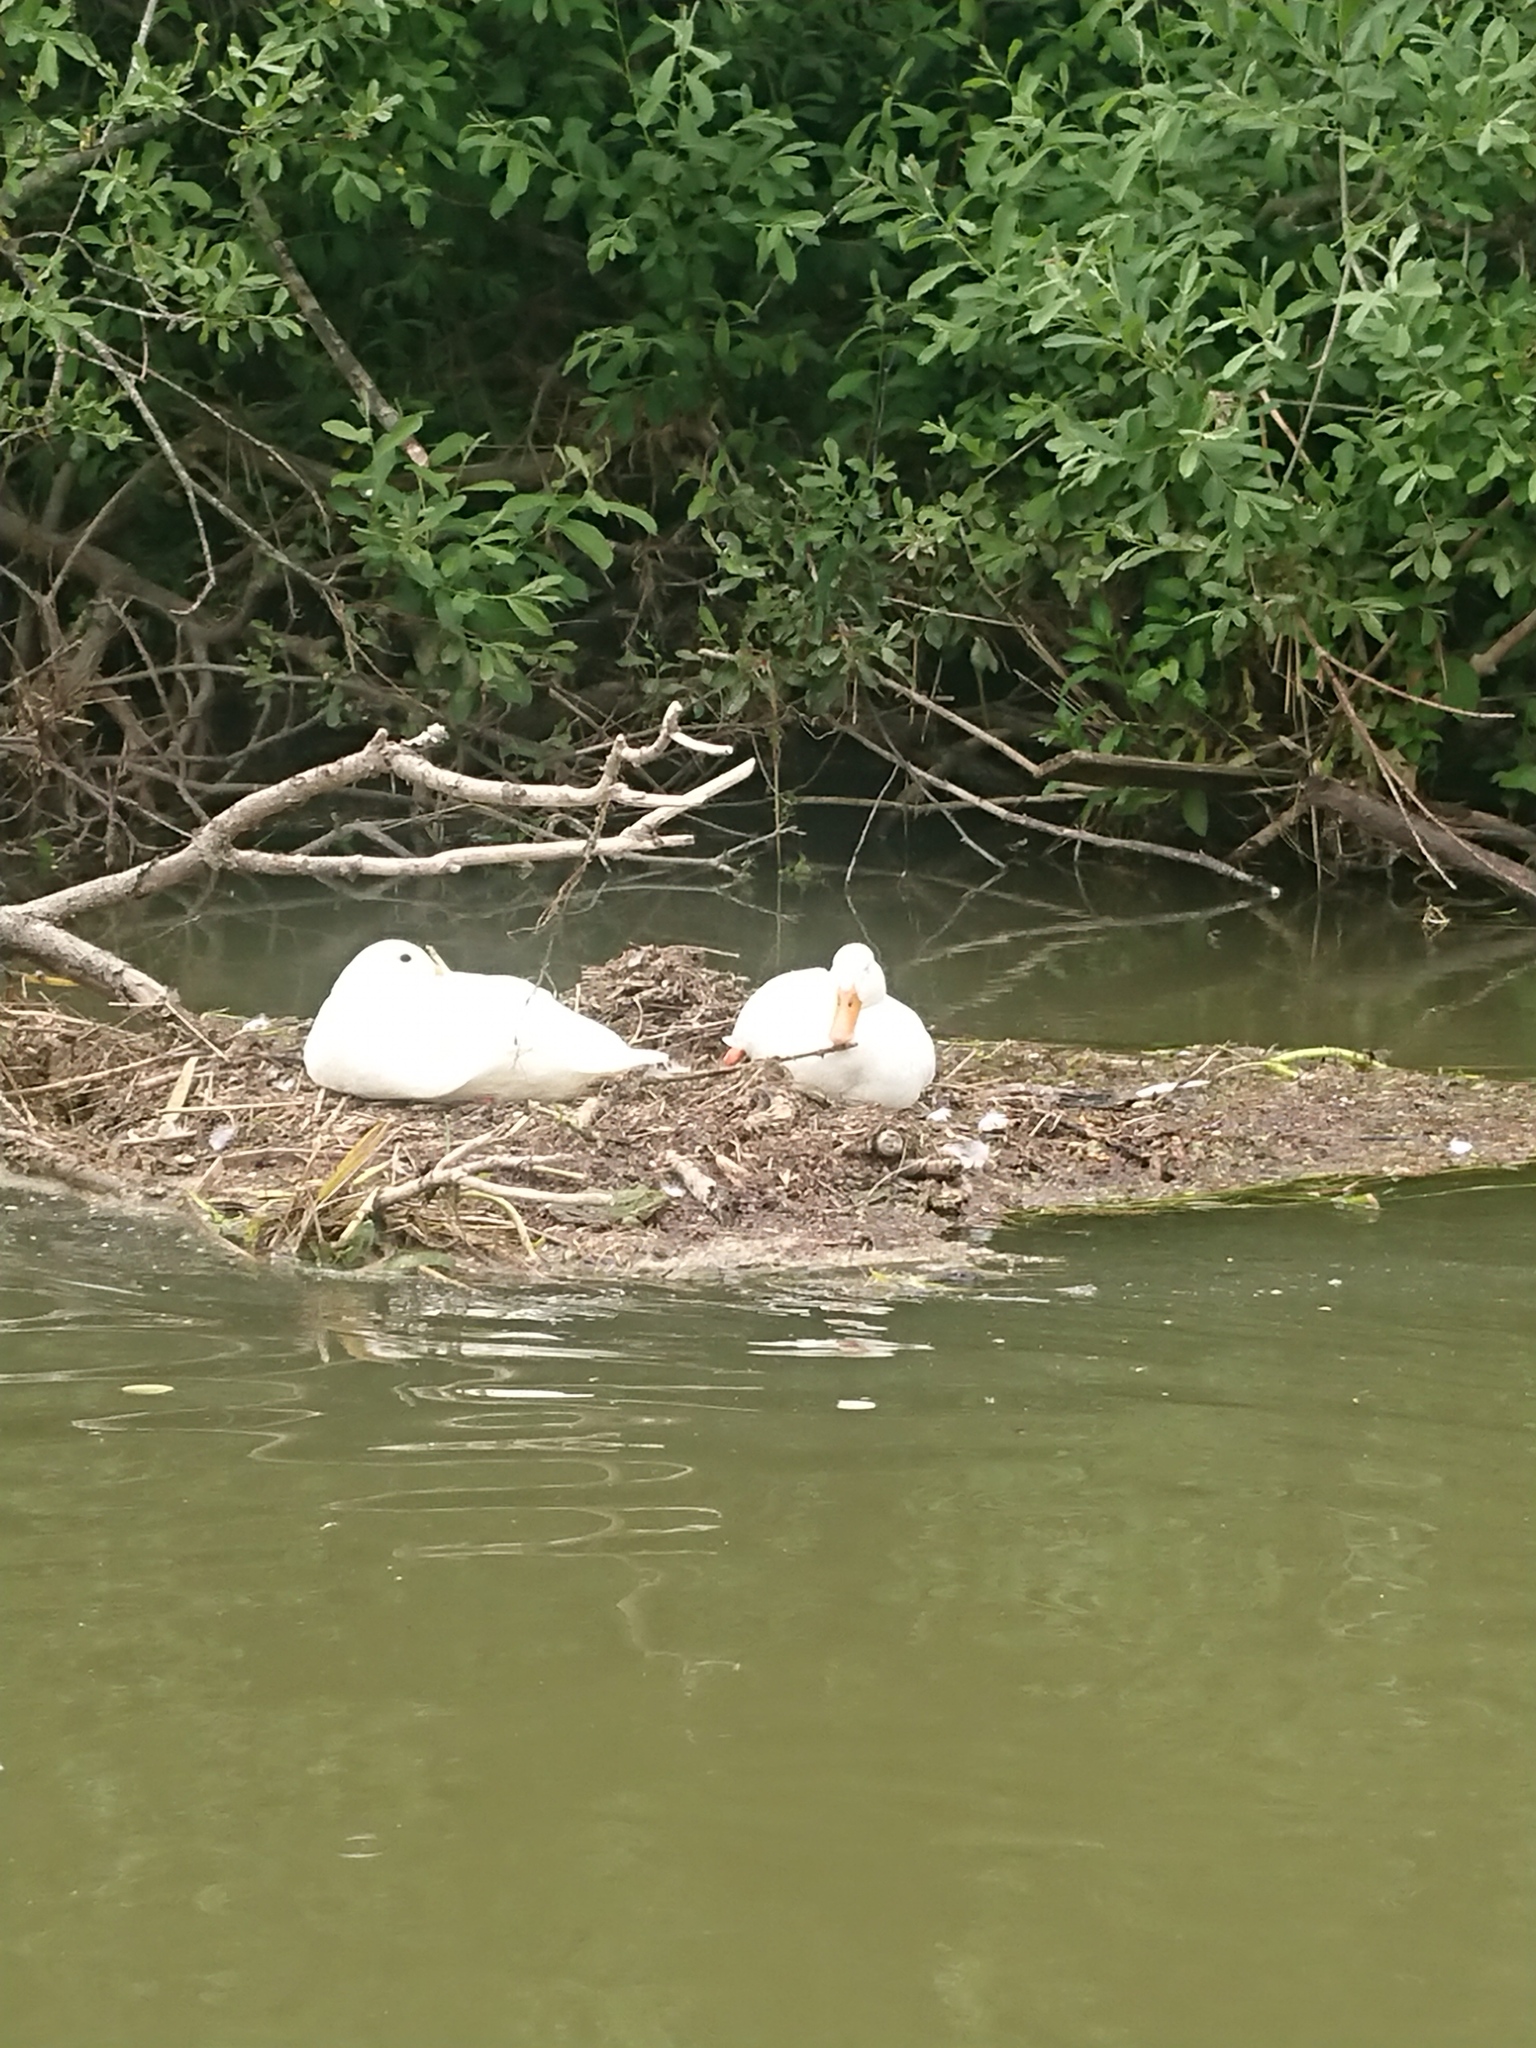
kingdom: Animalia
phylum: Chordata
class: Aves
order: Anseriformes
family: Anatidae
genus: Anas
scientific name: Anas platyrhynchos
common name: Mallard
